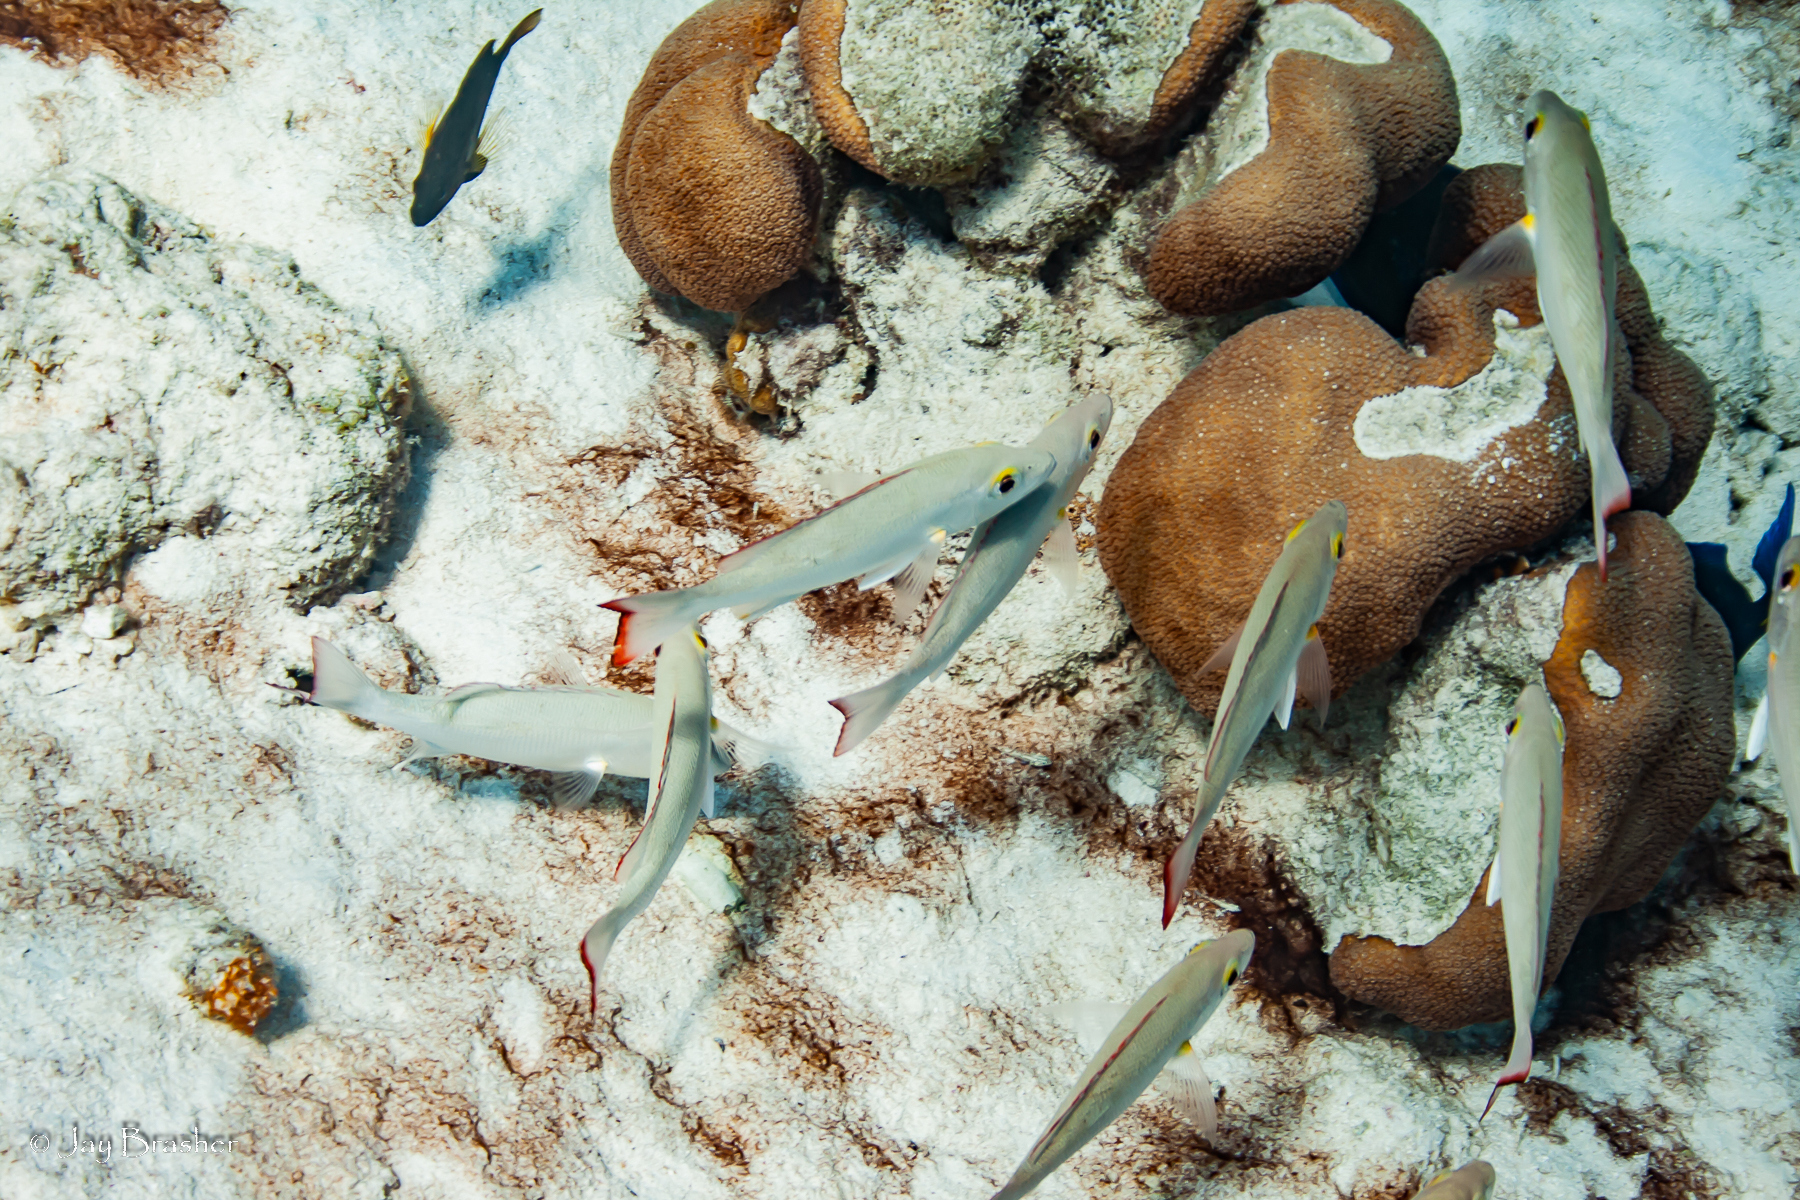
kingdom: Animalia
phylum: Chordata
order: Perciformes
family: Lutjanidae
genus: Lutjanus
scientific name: Lutjanus mahogoni
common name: Spot snapper
